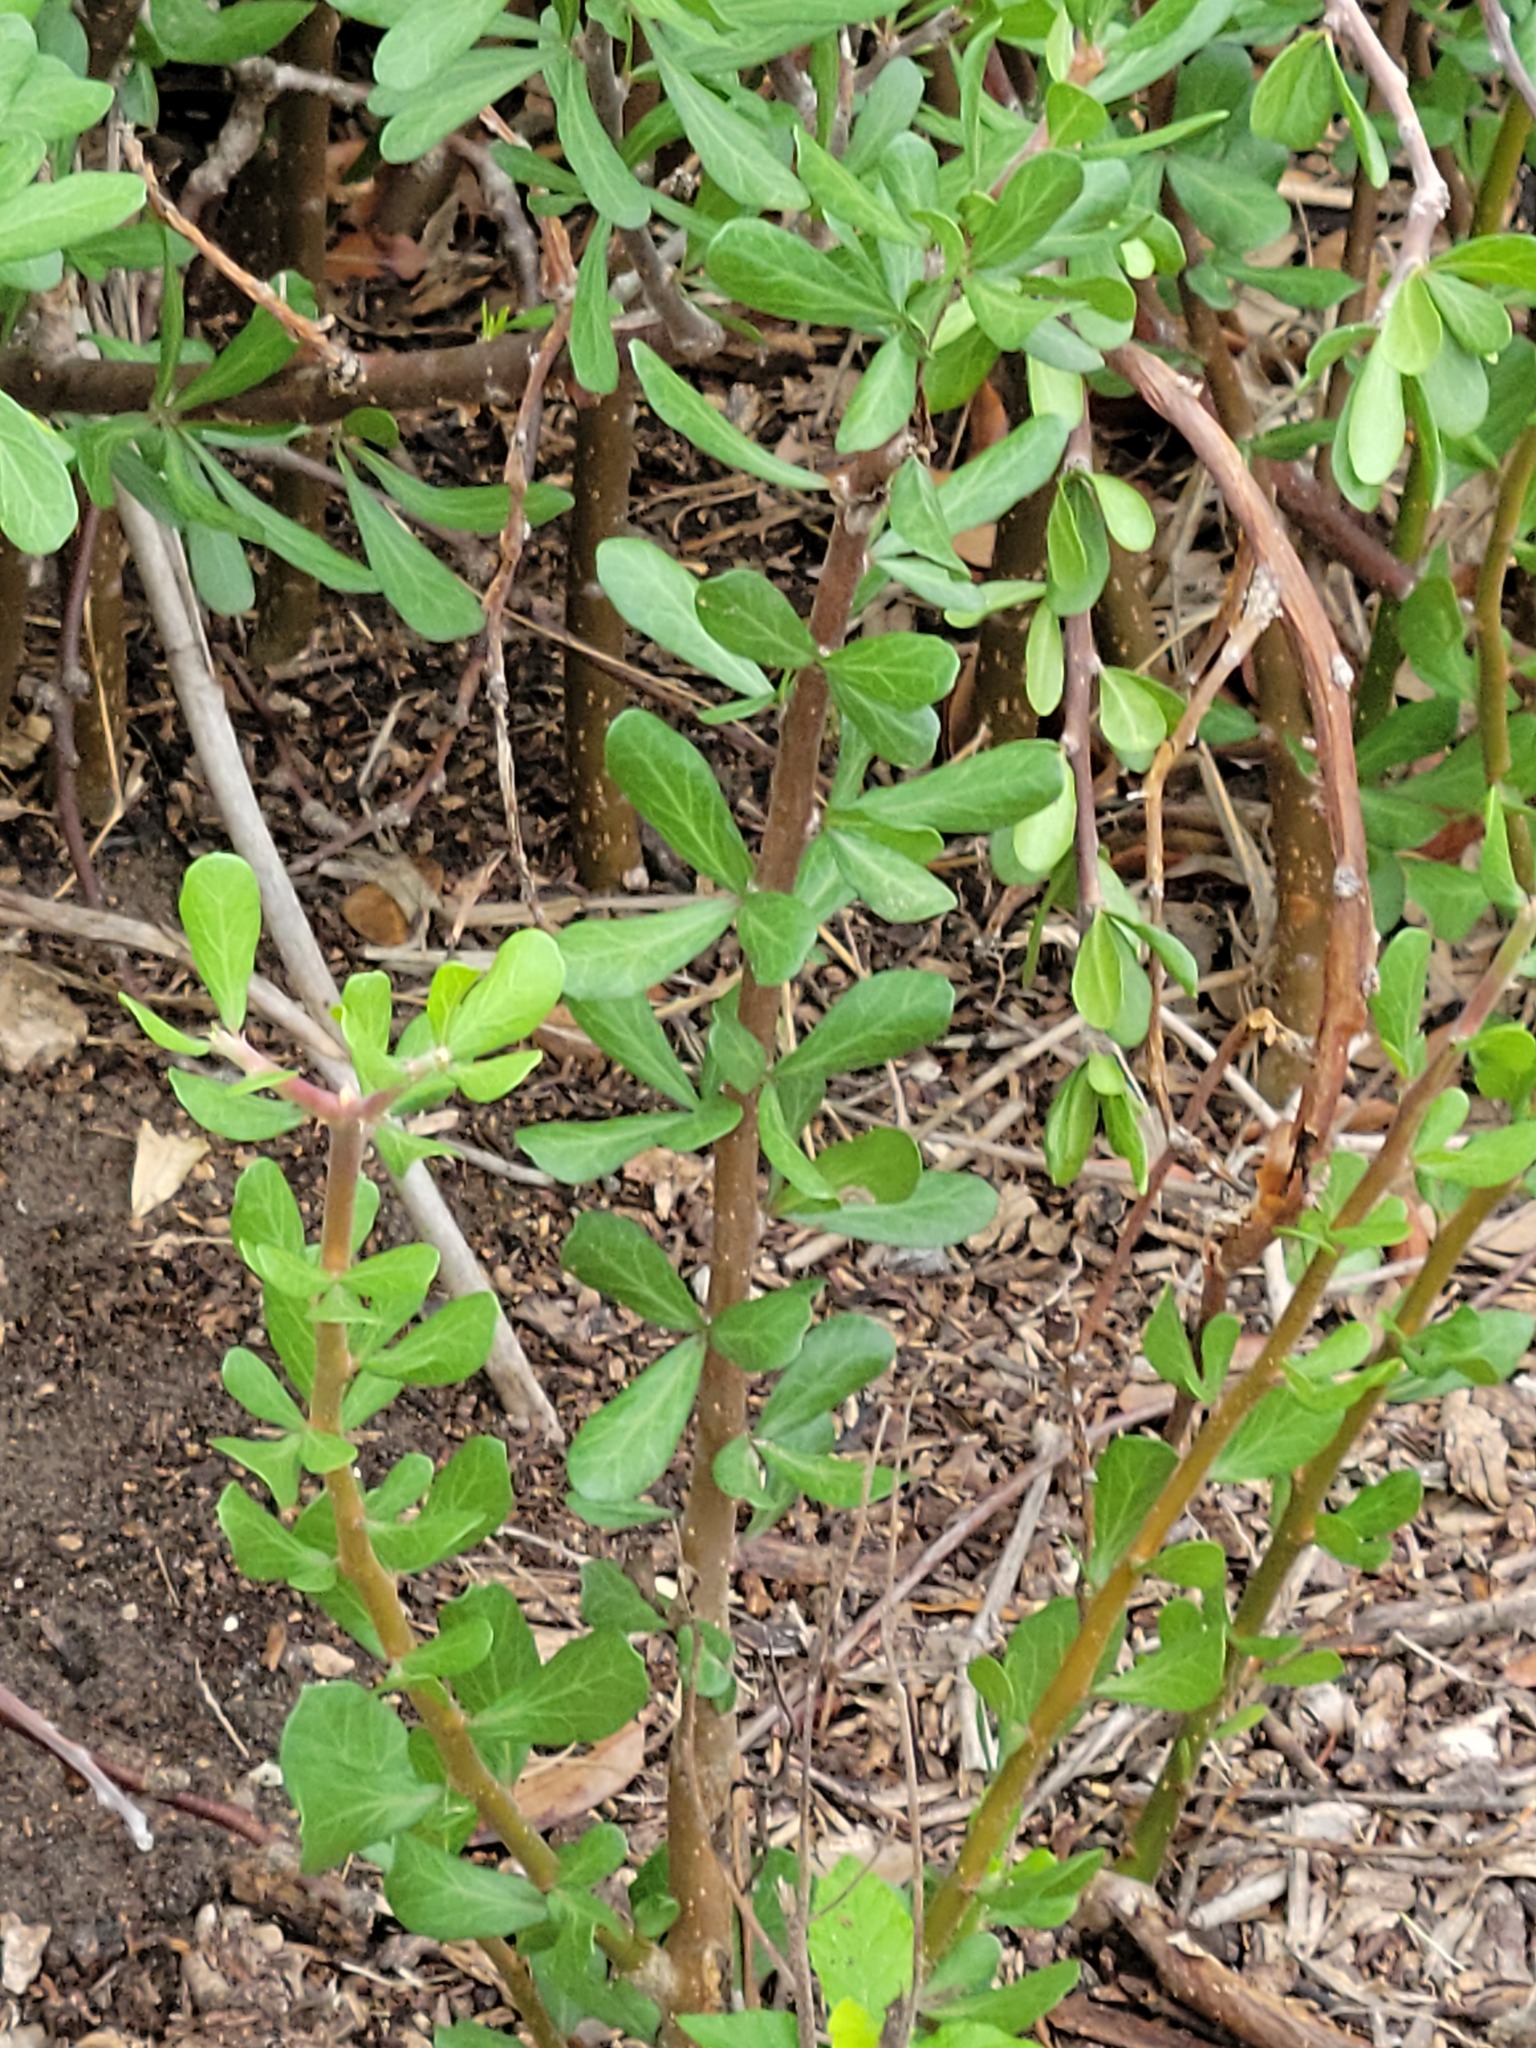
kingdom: Plantae
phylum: Tracheophyta
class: Magnoliopsida
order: Malpighiales
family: Euphorbiaceae
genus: Jatropha
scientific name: Jatropha dioica
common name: Leatherstem
